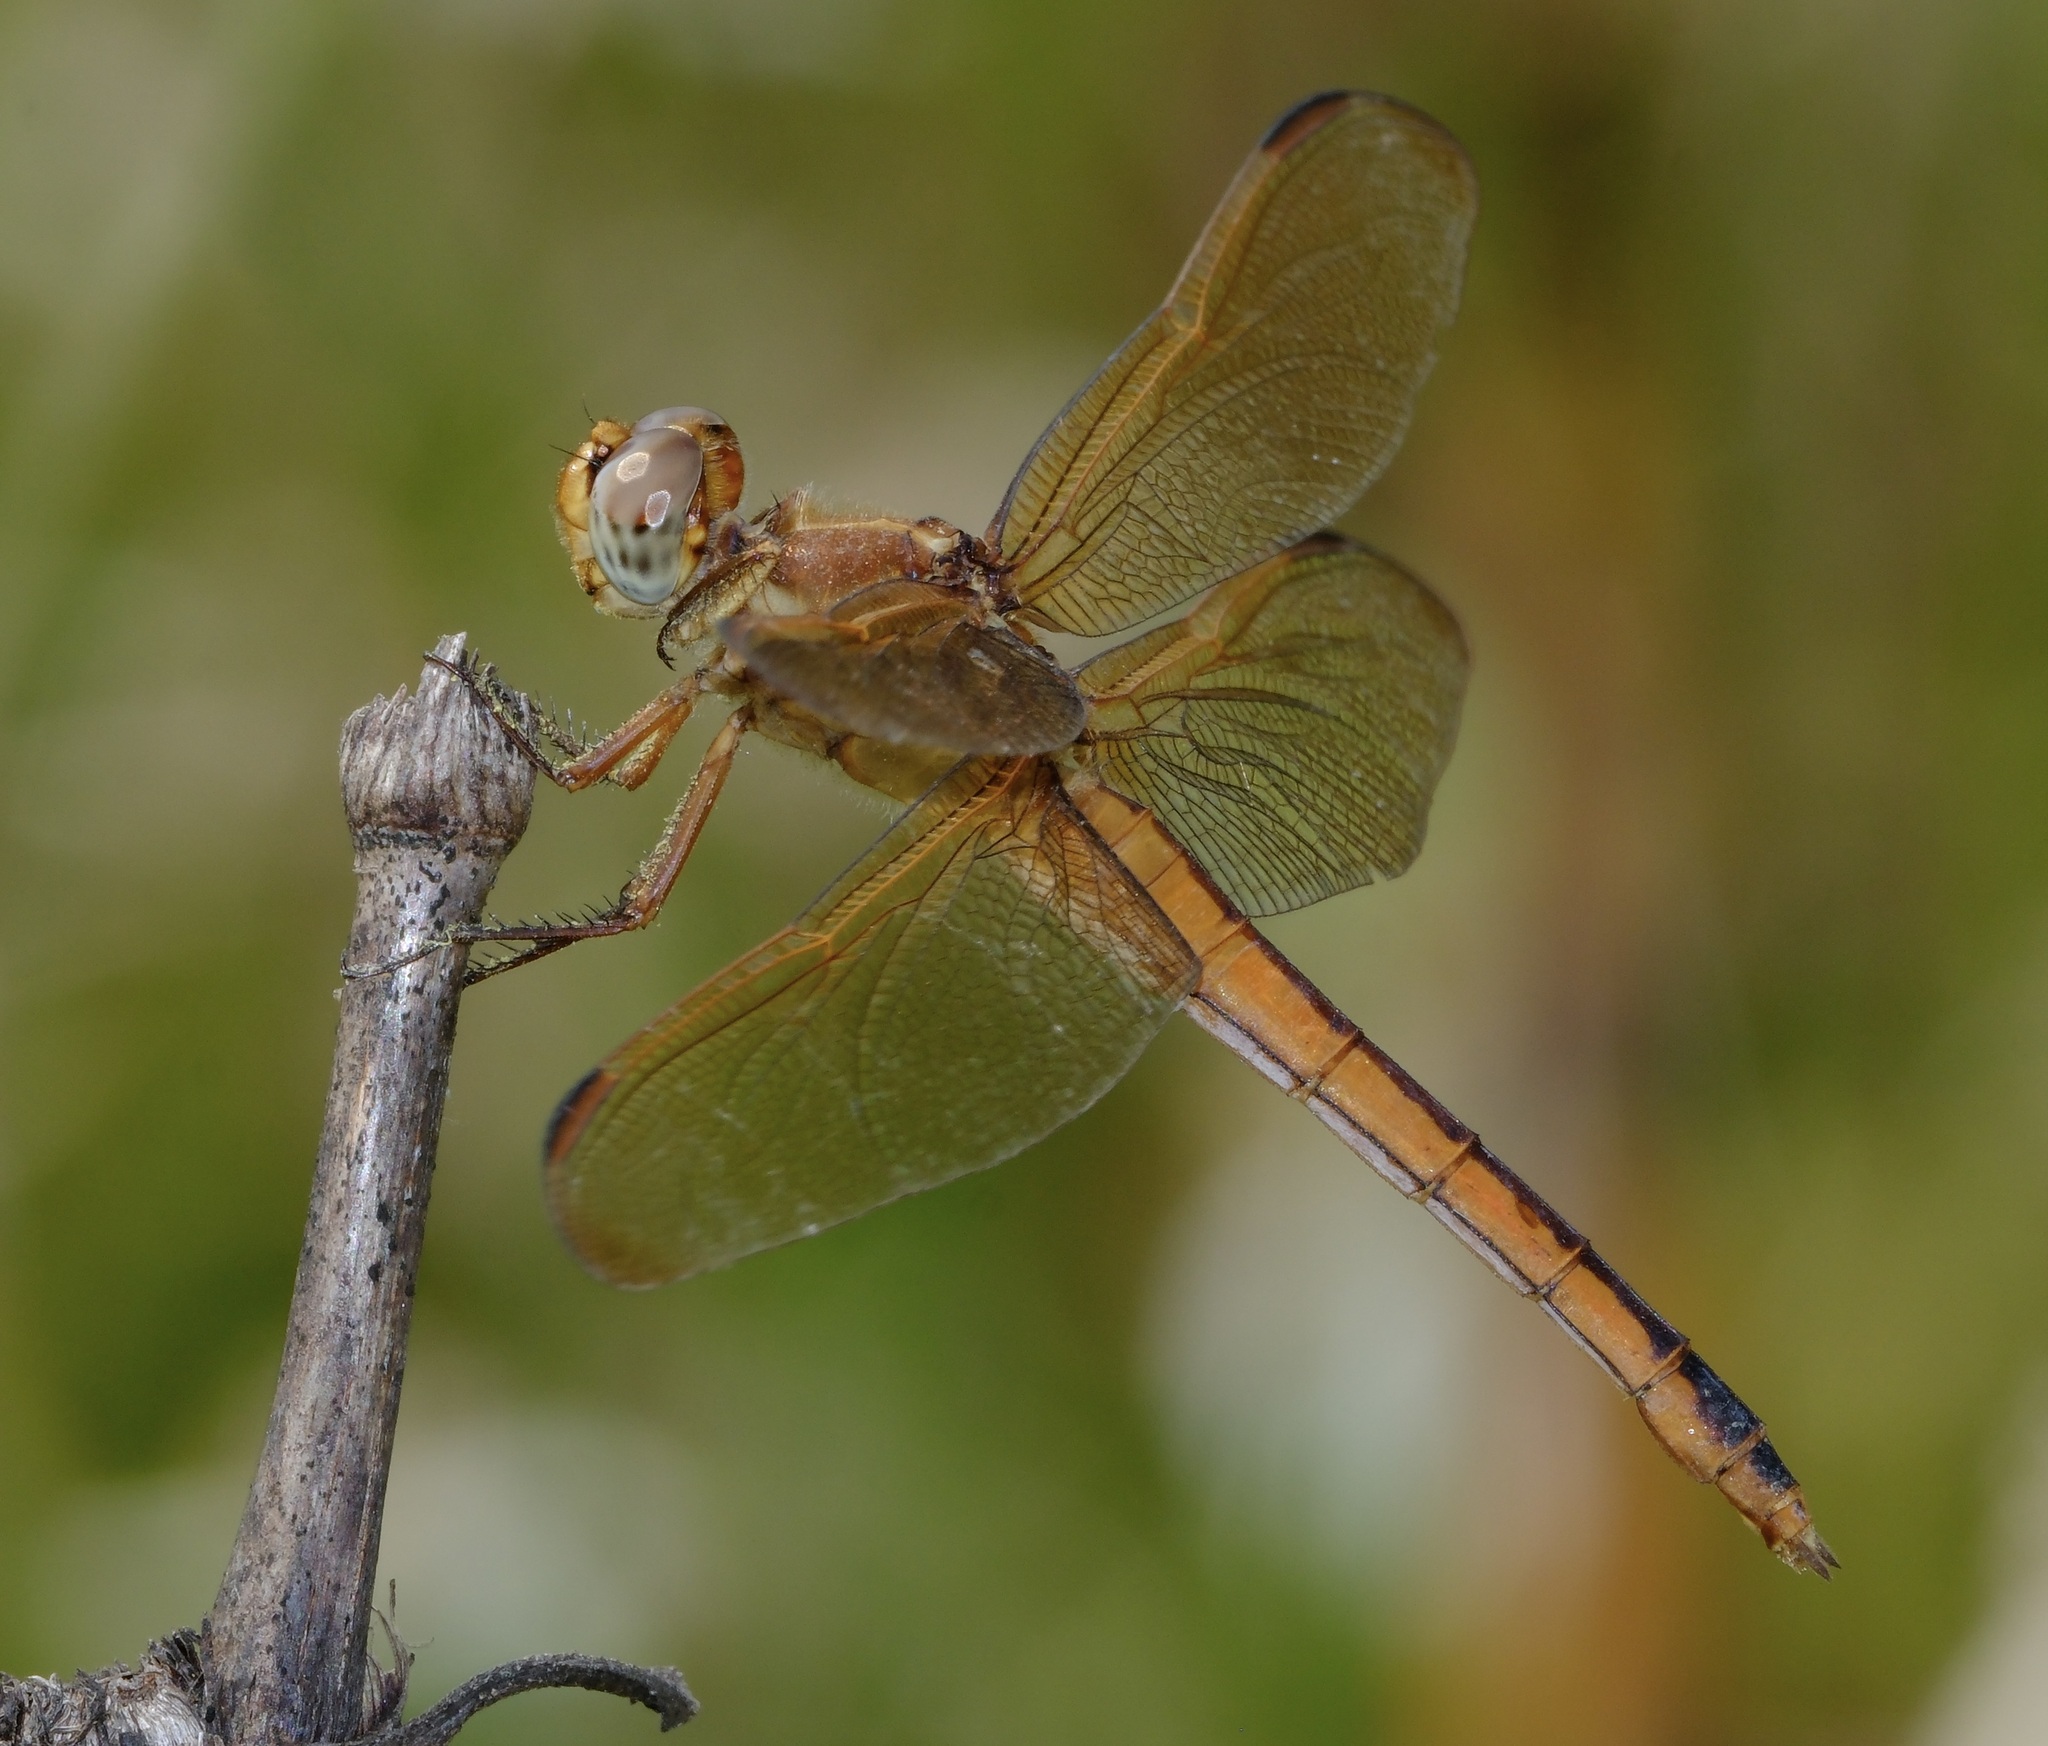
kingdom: Animalia
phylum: Arthropoda
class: Insecta
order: Odonata
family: Libellulidae
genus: Libellula
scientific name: Libellula needhami
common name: Needham's skimmer
